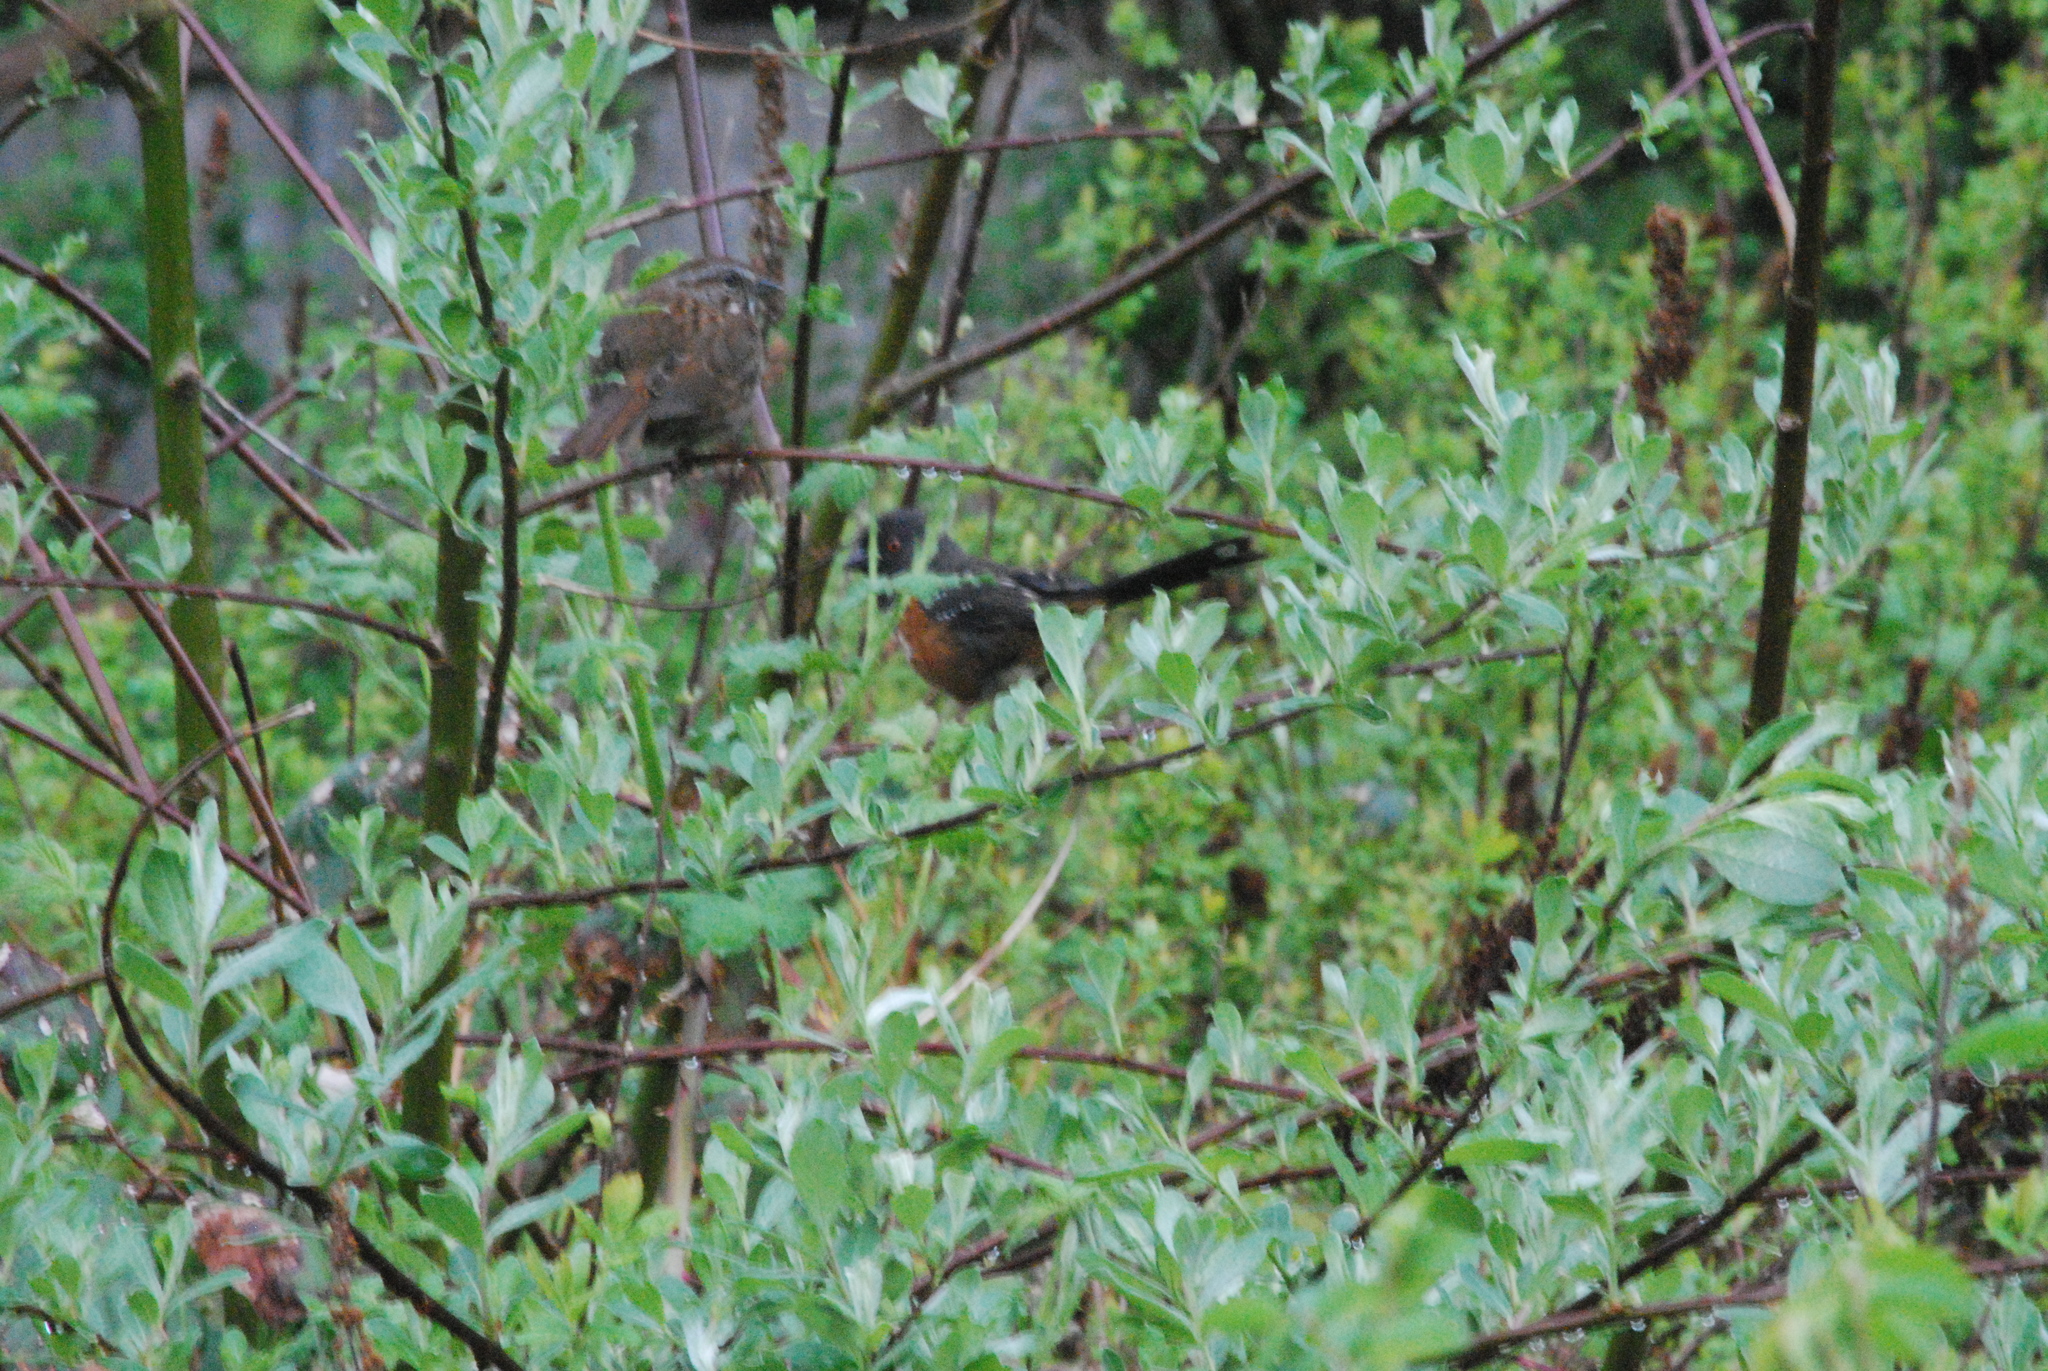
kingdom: Animalia
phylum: Chordata
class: Aves
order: Passeriformes
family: Passerellidae
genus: Pipilo
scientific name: Pipilo maculatus
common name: Spotted towhee
